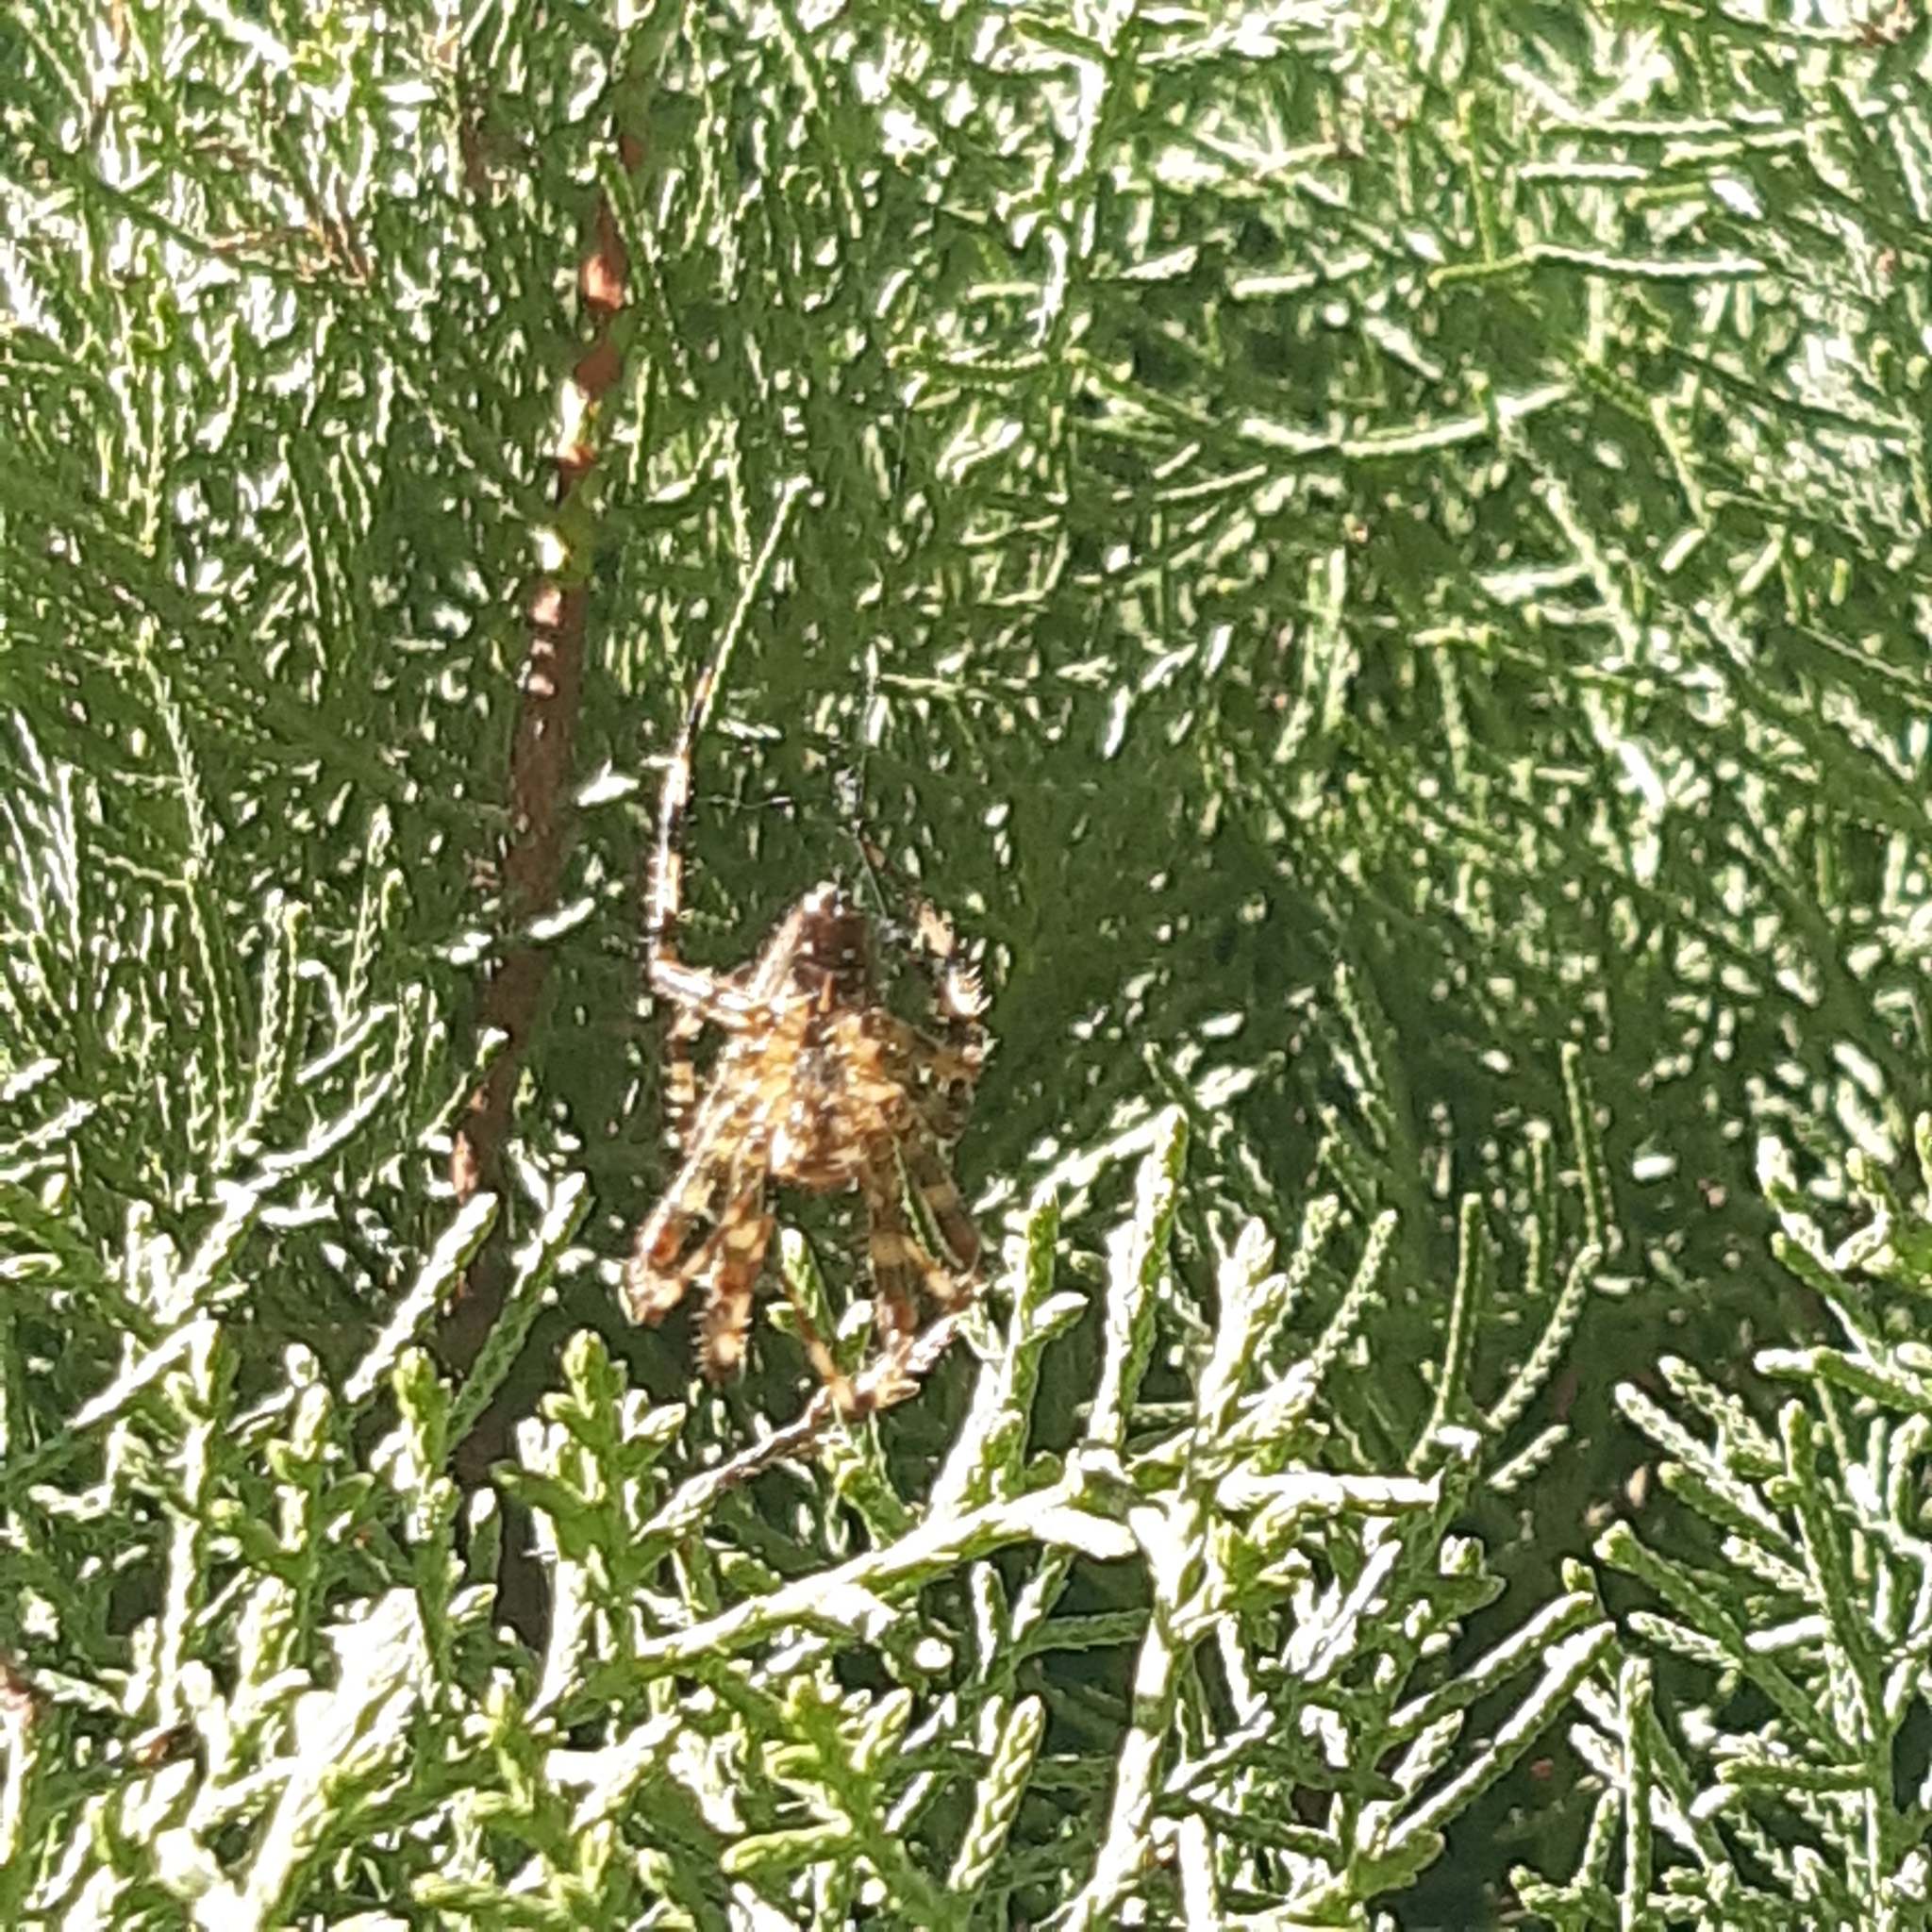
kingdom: Animalia
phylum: Arthropoda
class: Arachnida
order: Araneae
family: Araneidae
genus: Araneus
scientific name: Araneus diadematus
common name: Cross orbweaver
